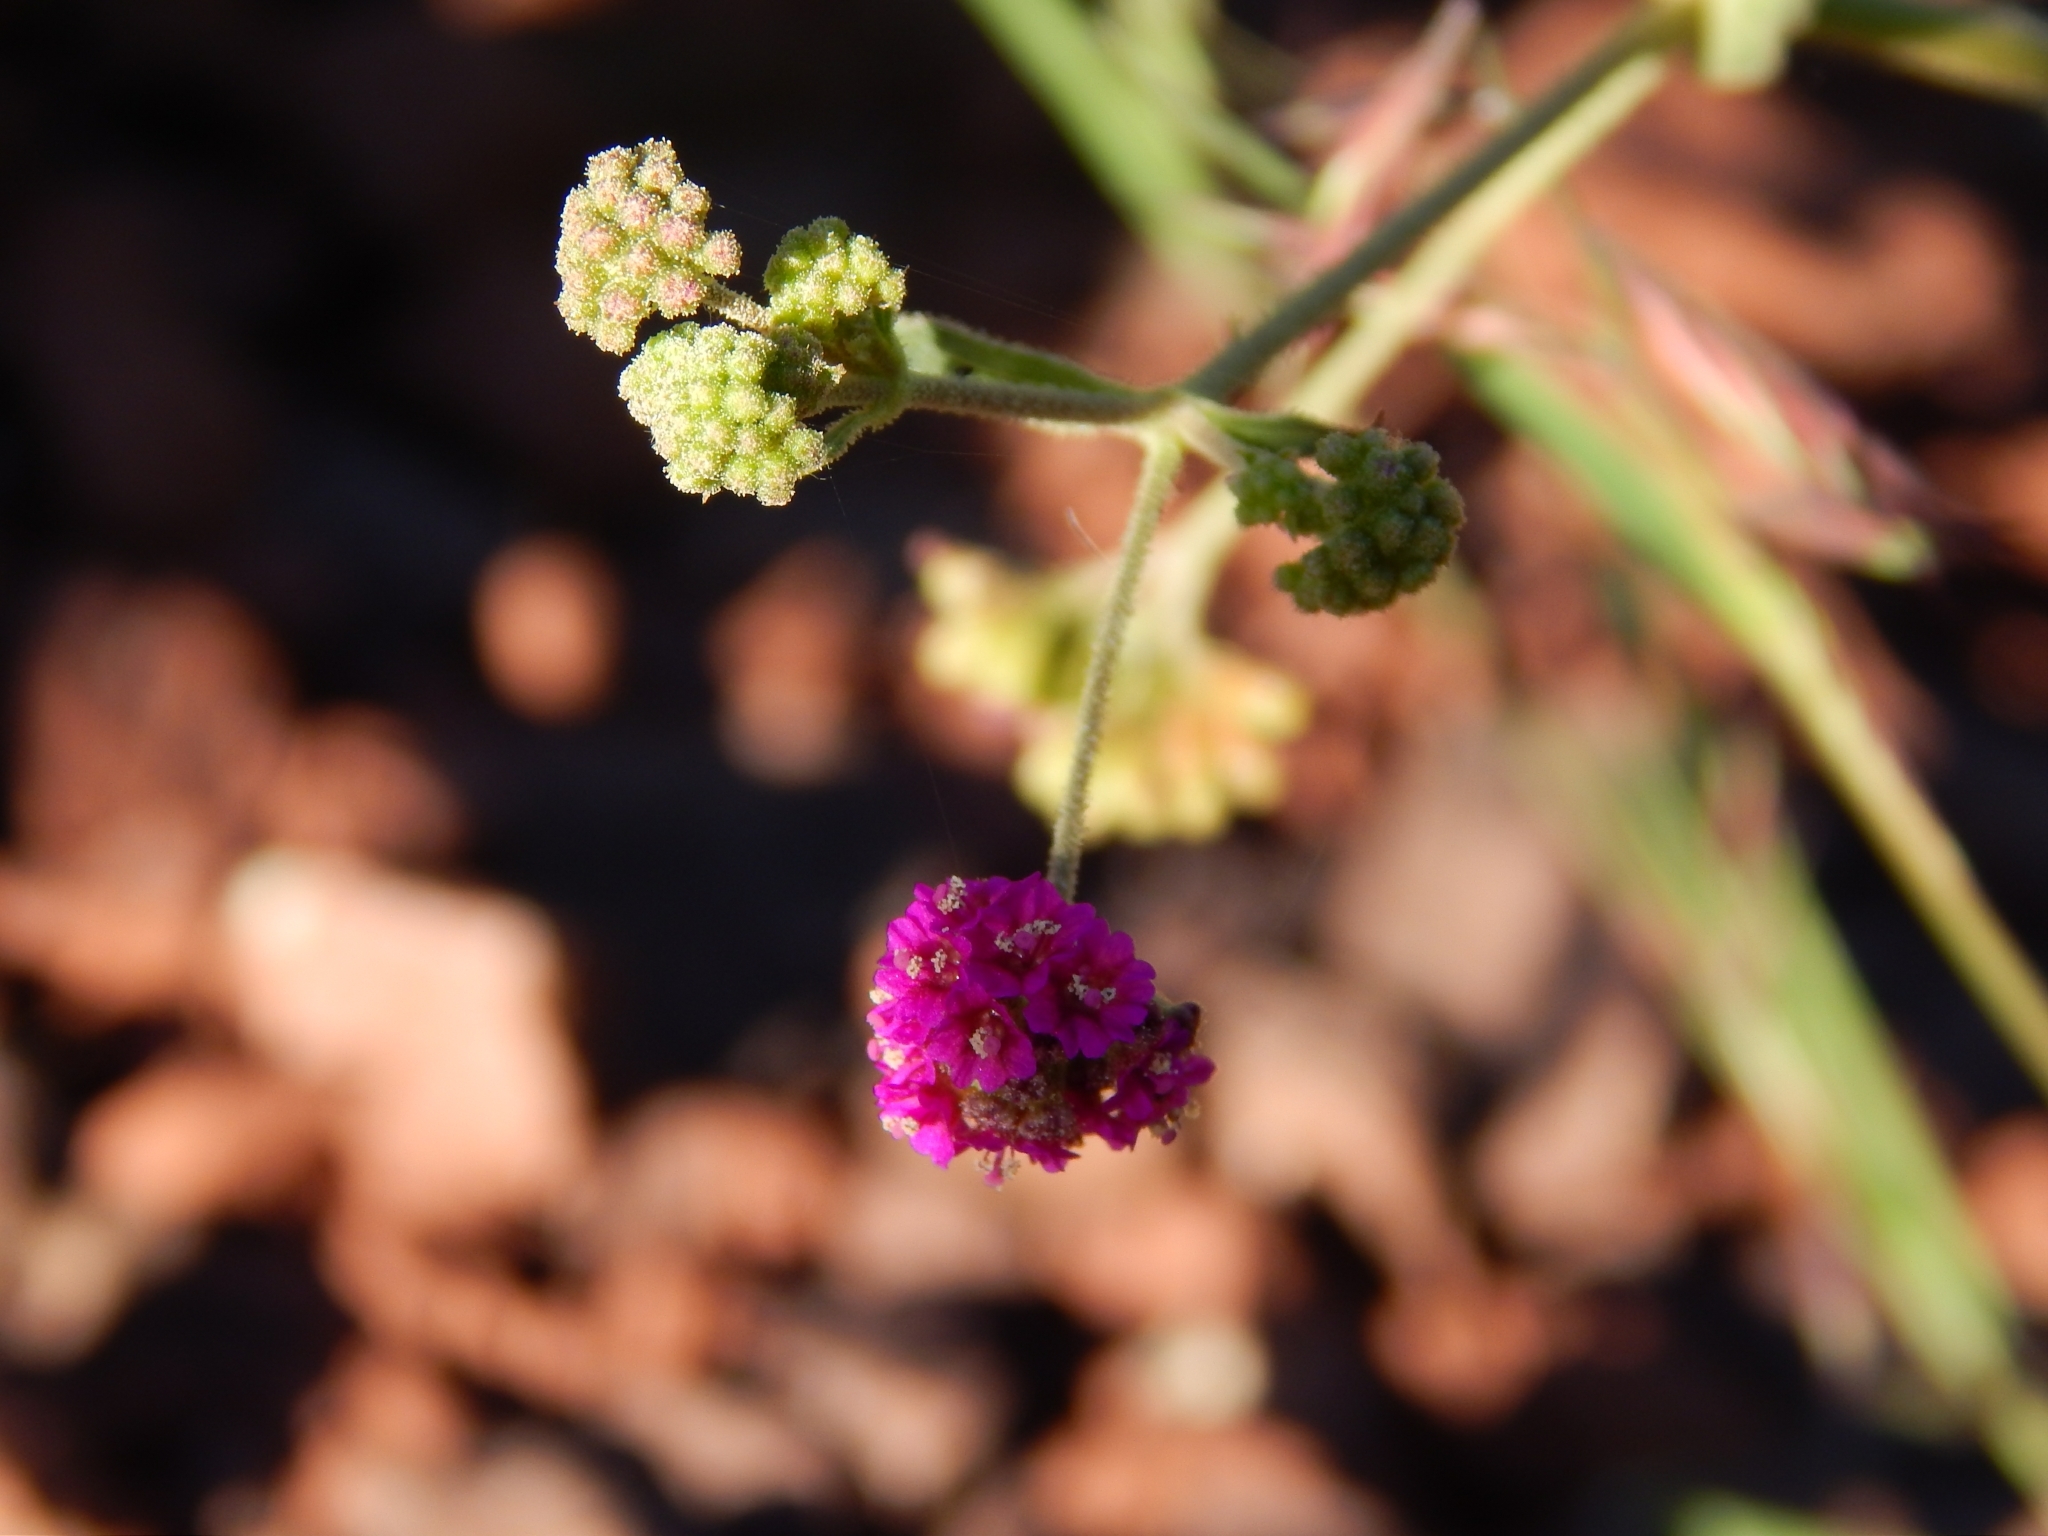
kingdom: Plantae
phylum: Tracheophyta
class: Magnoliopsida
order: Caryophyllales
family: Nyctaginaceae
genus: Boerhavia
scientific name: Boerhavia coccinea
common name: Scarlet spiderling
